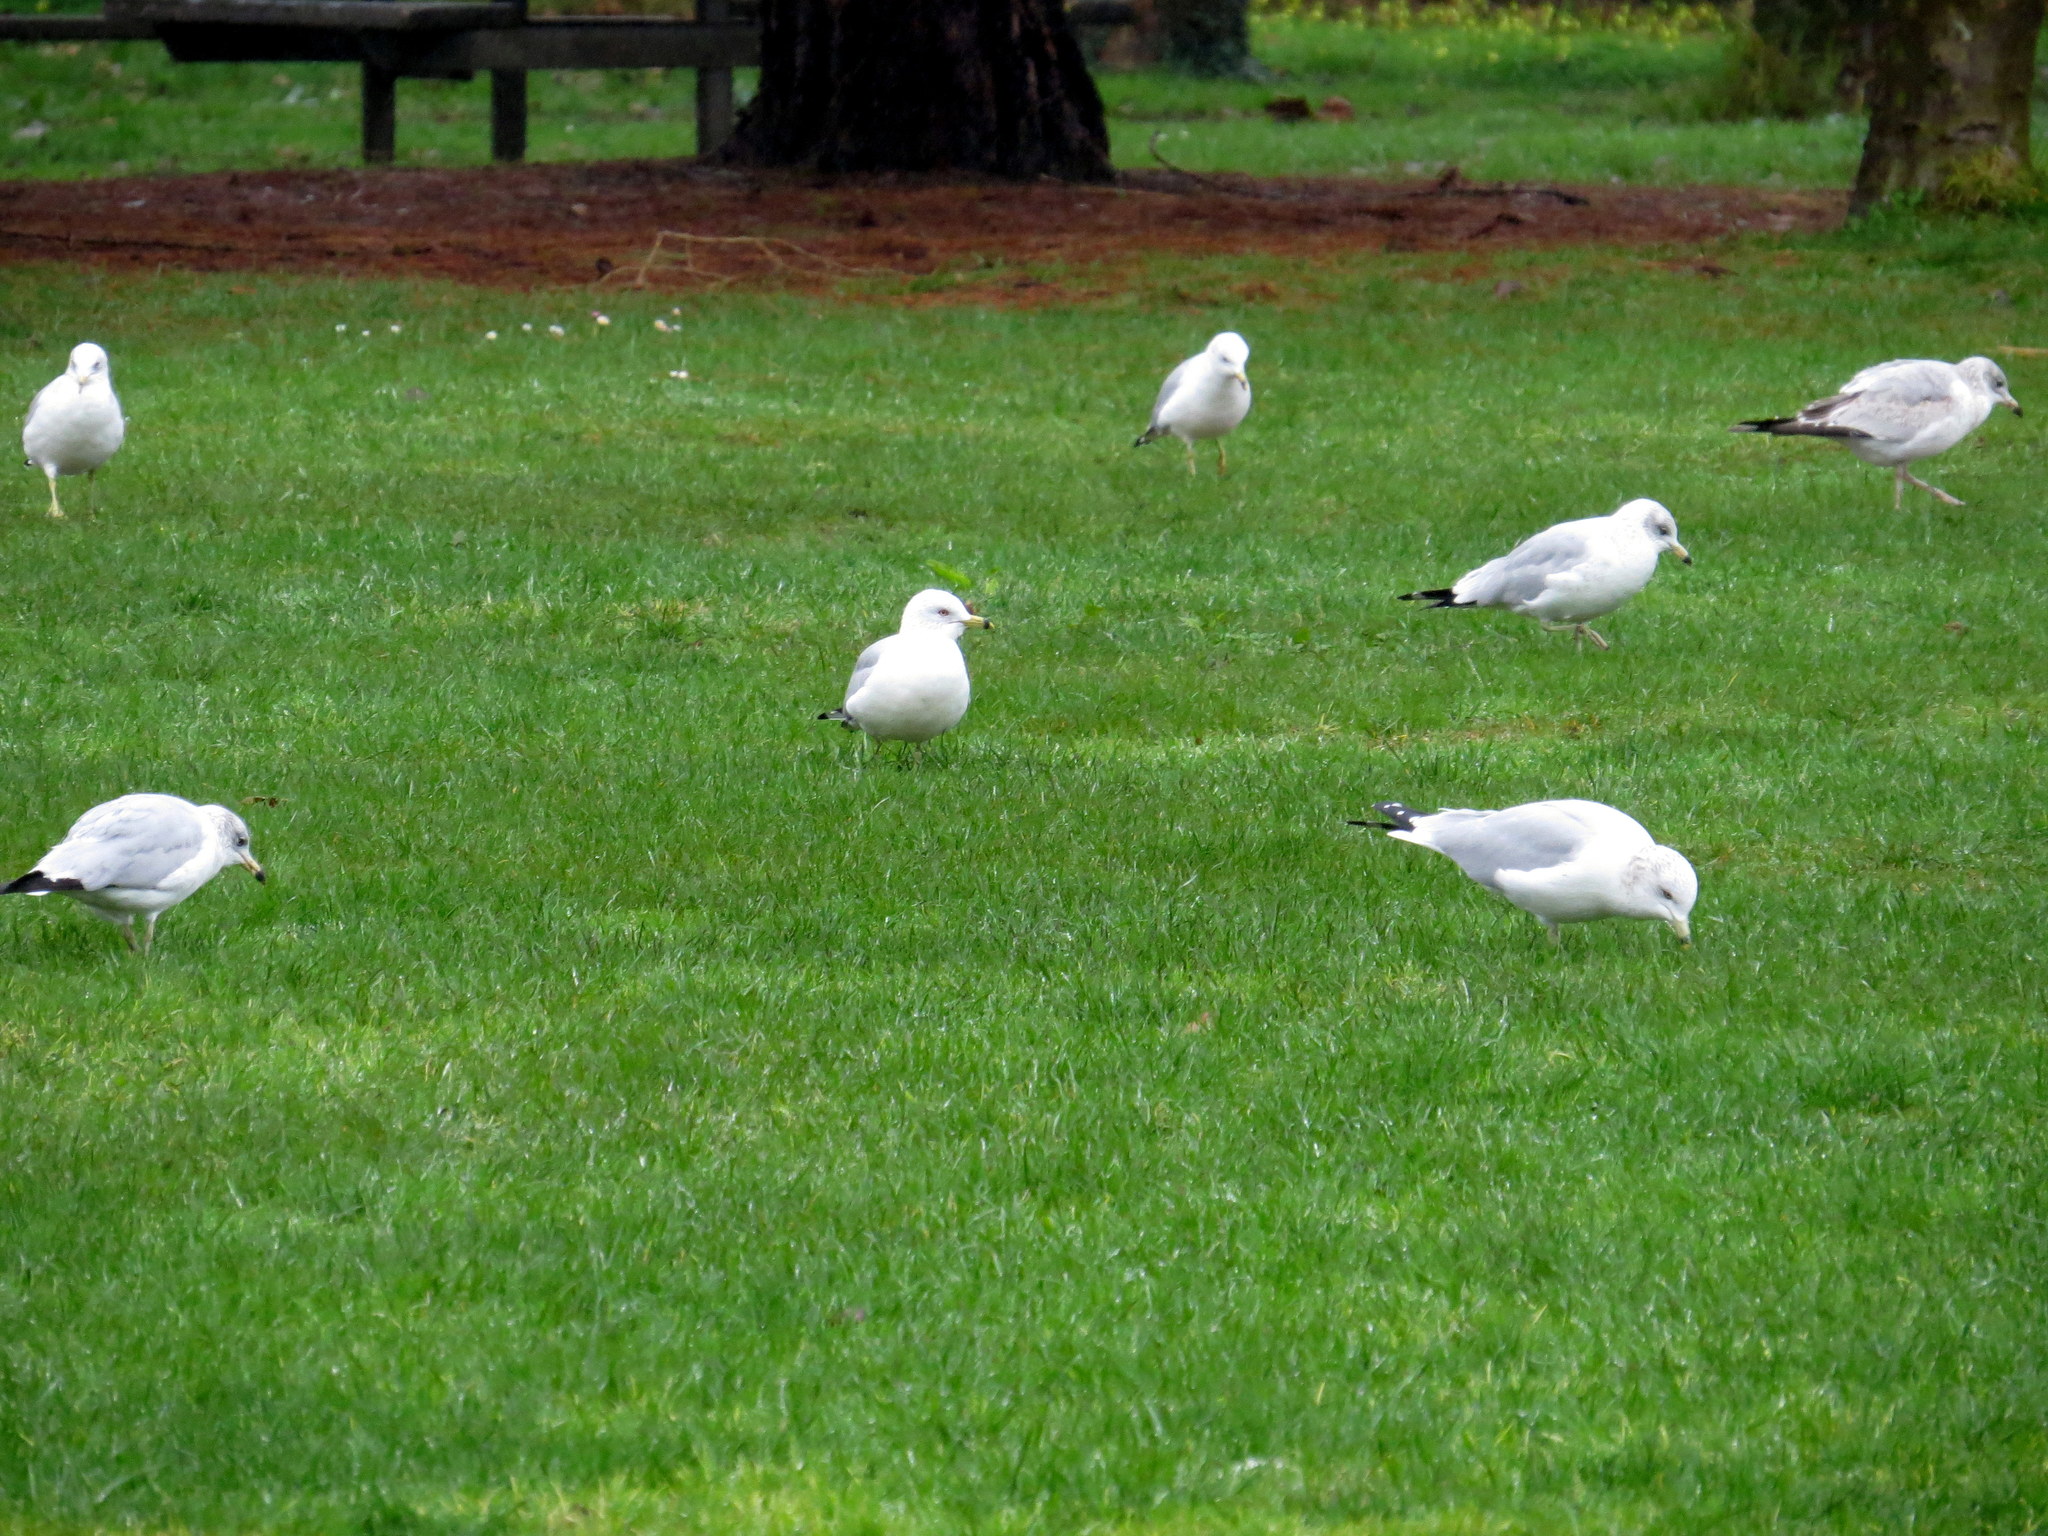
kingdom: Animalia
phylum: Chordata
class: Aves
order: Charadriiformes
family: Laridae
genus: Larus
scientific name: Larus delawarensis
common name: Ring-billed gull
